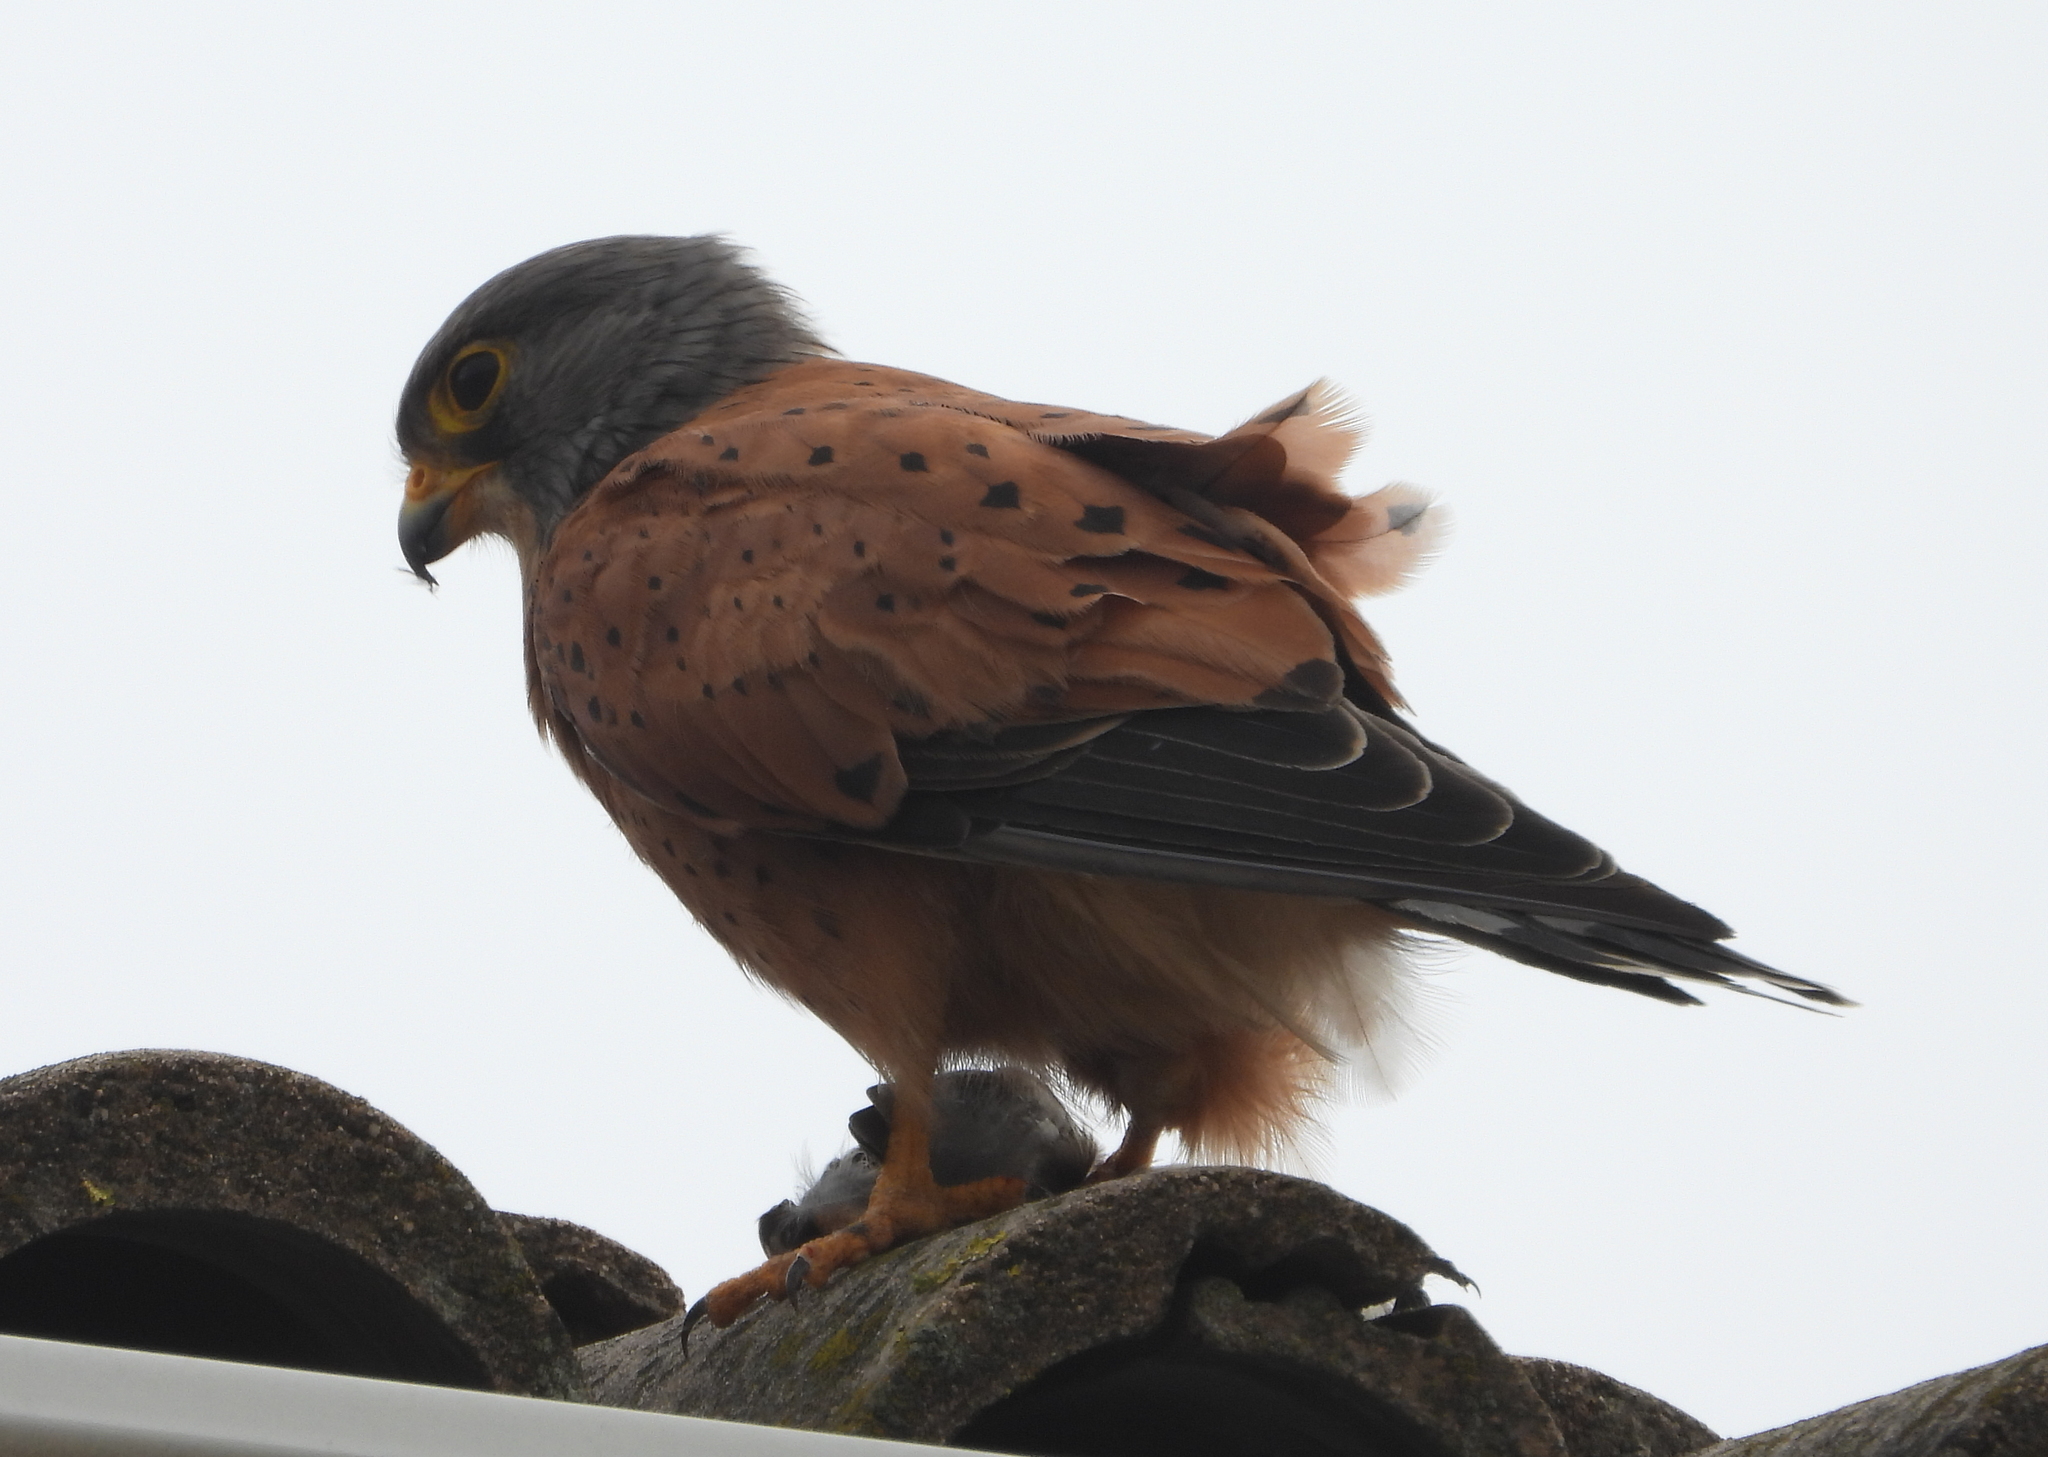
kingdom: Animalia
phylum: Chordata
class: Aves
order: Falconiformes
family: Falconidae
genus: Falco
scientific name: Falco rupicolus
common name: Rock kestrel
